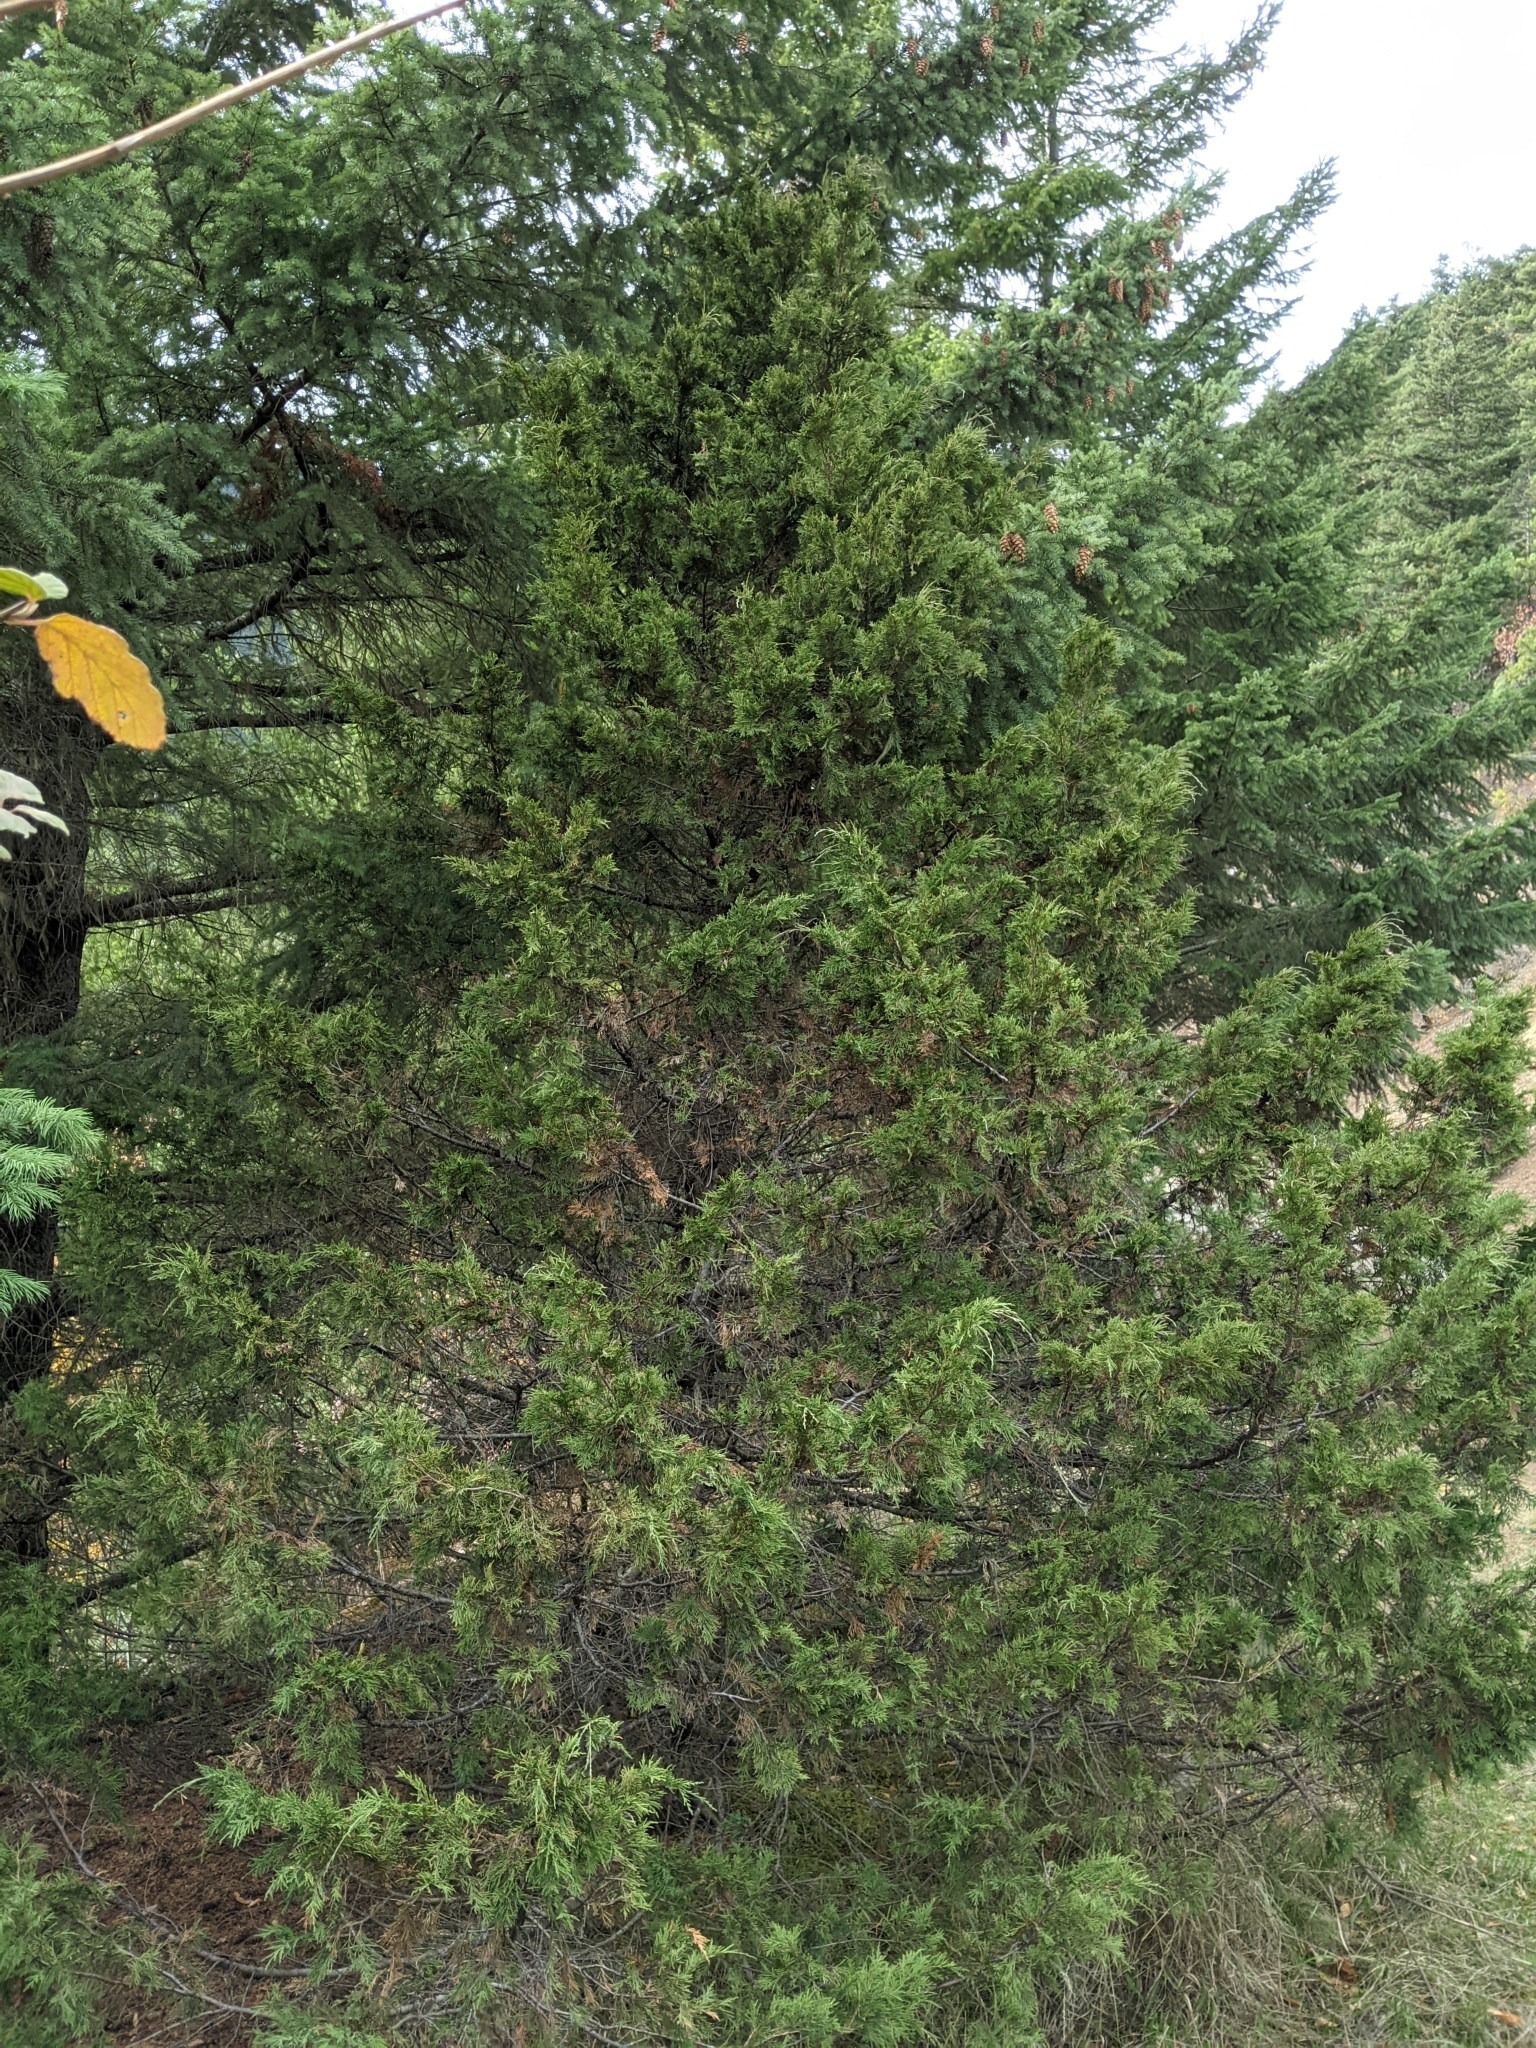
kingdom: Plantae
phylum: Tracheophyta
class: Pinopsida
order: Pinales
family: Cupressaceae
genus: Juniperus
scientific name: Juniperus scopulorum
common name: Rocky mountain juniper
